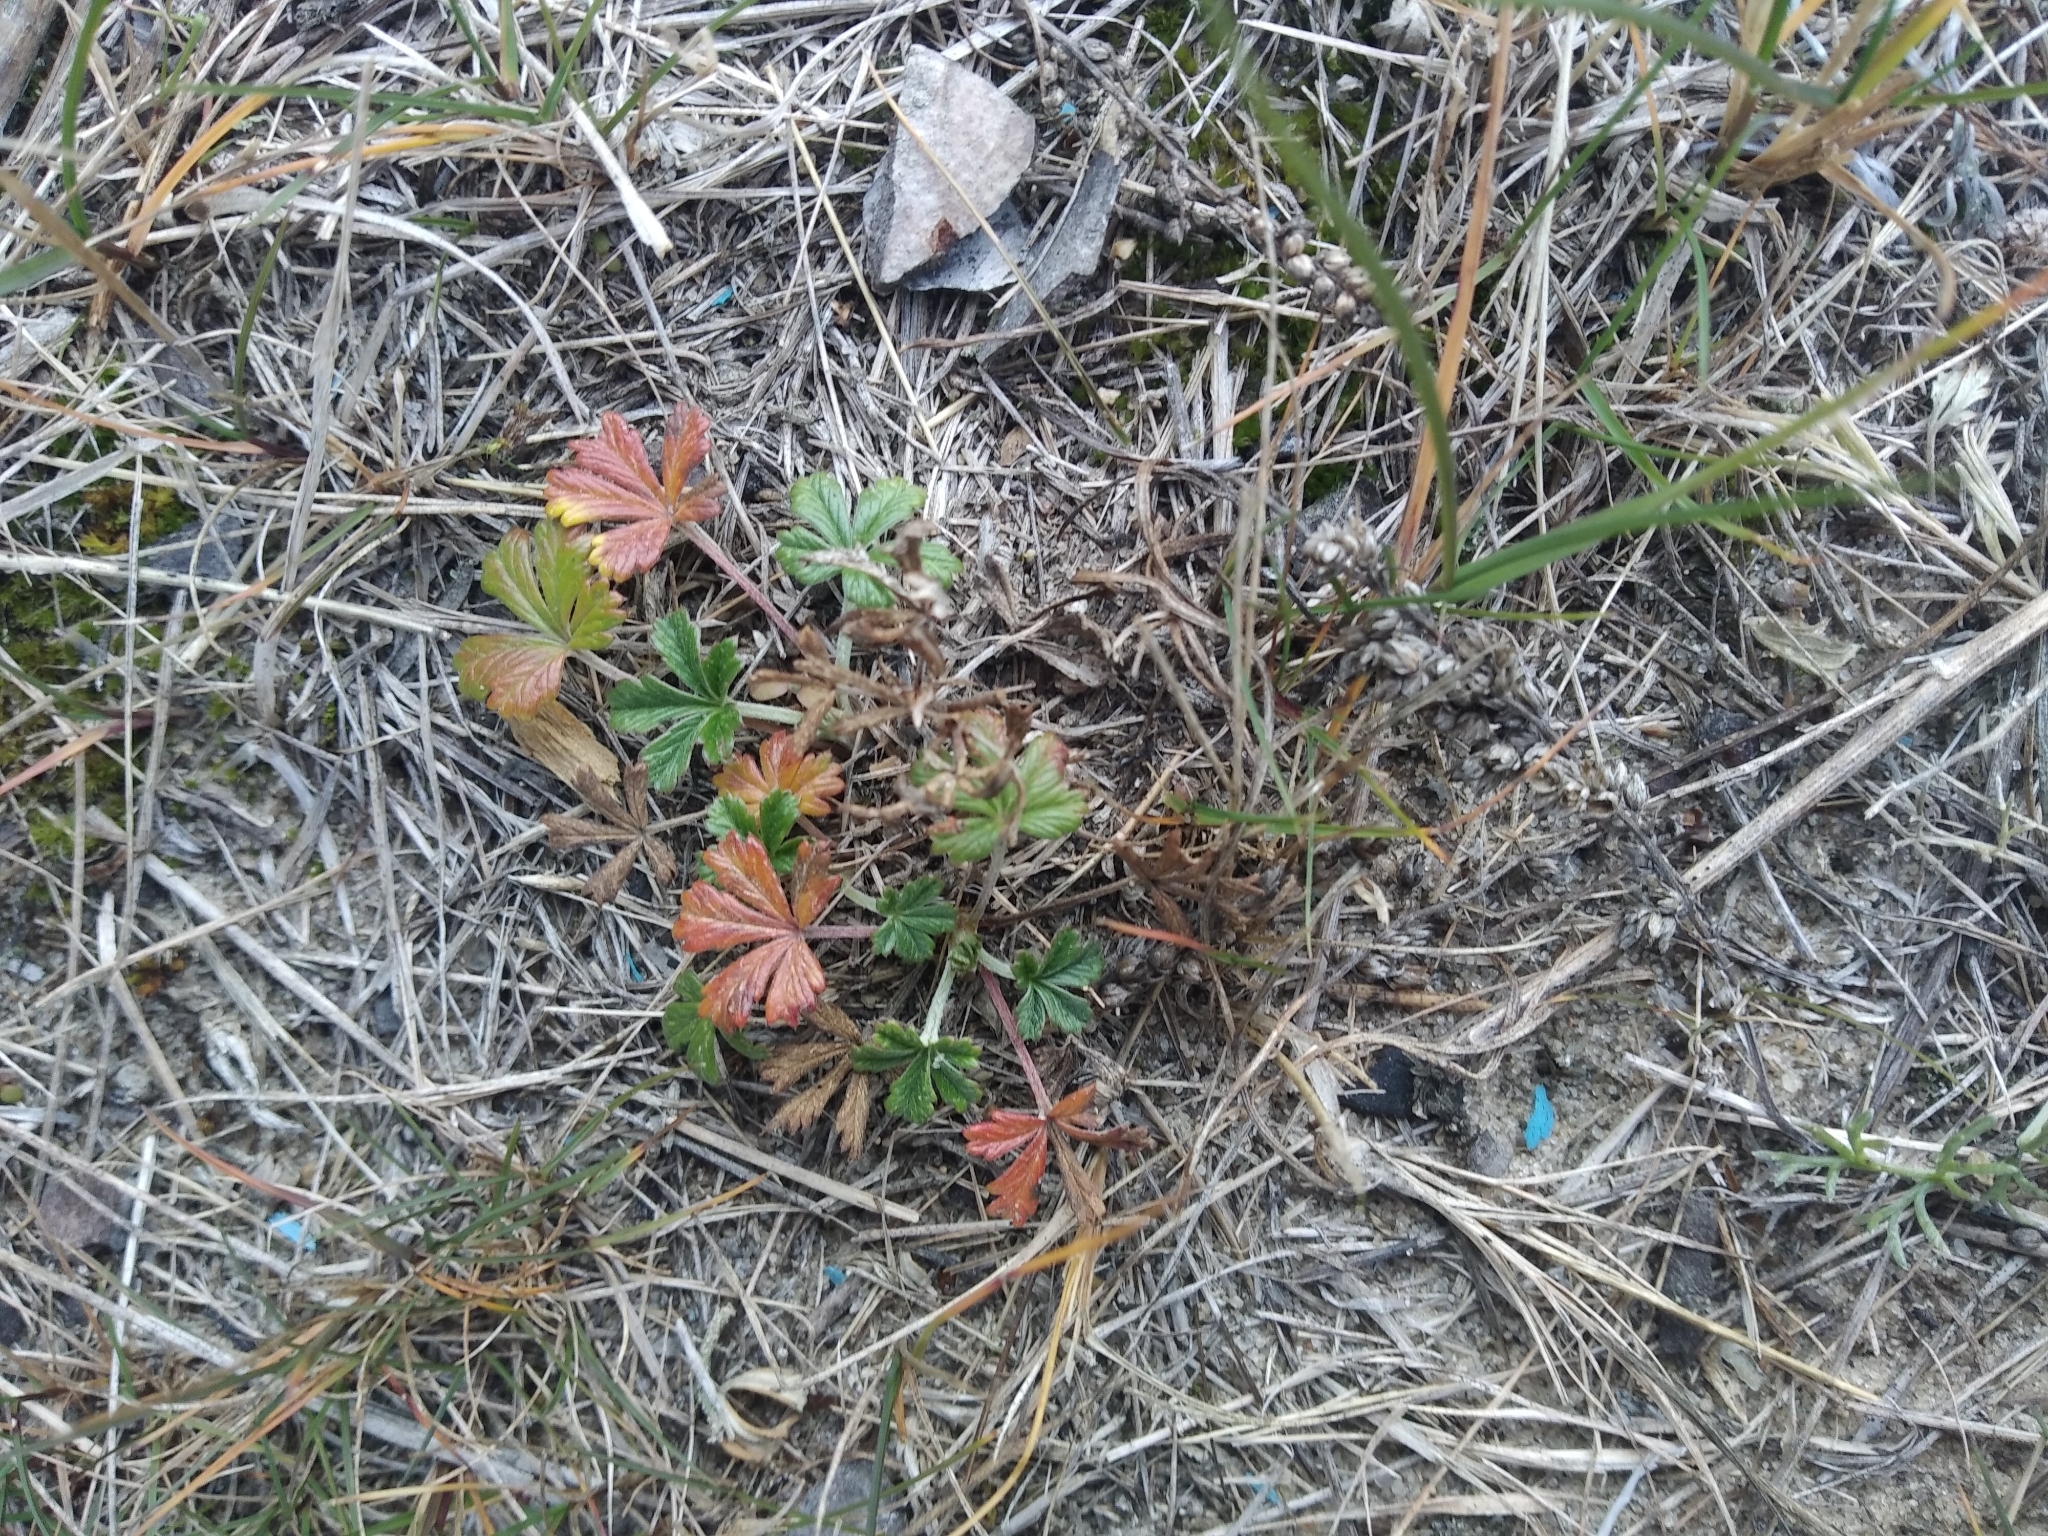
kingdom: Plantae
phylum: Tracheophyta
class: Magnoliopsida
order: Rosales
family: Rosaceae
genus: Potentilla
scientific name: Potentilla argentea
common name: Hoary cinquefoil
